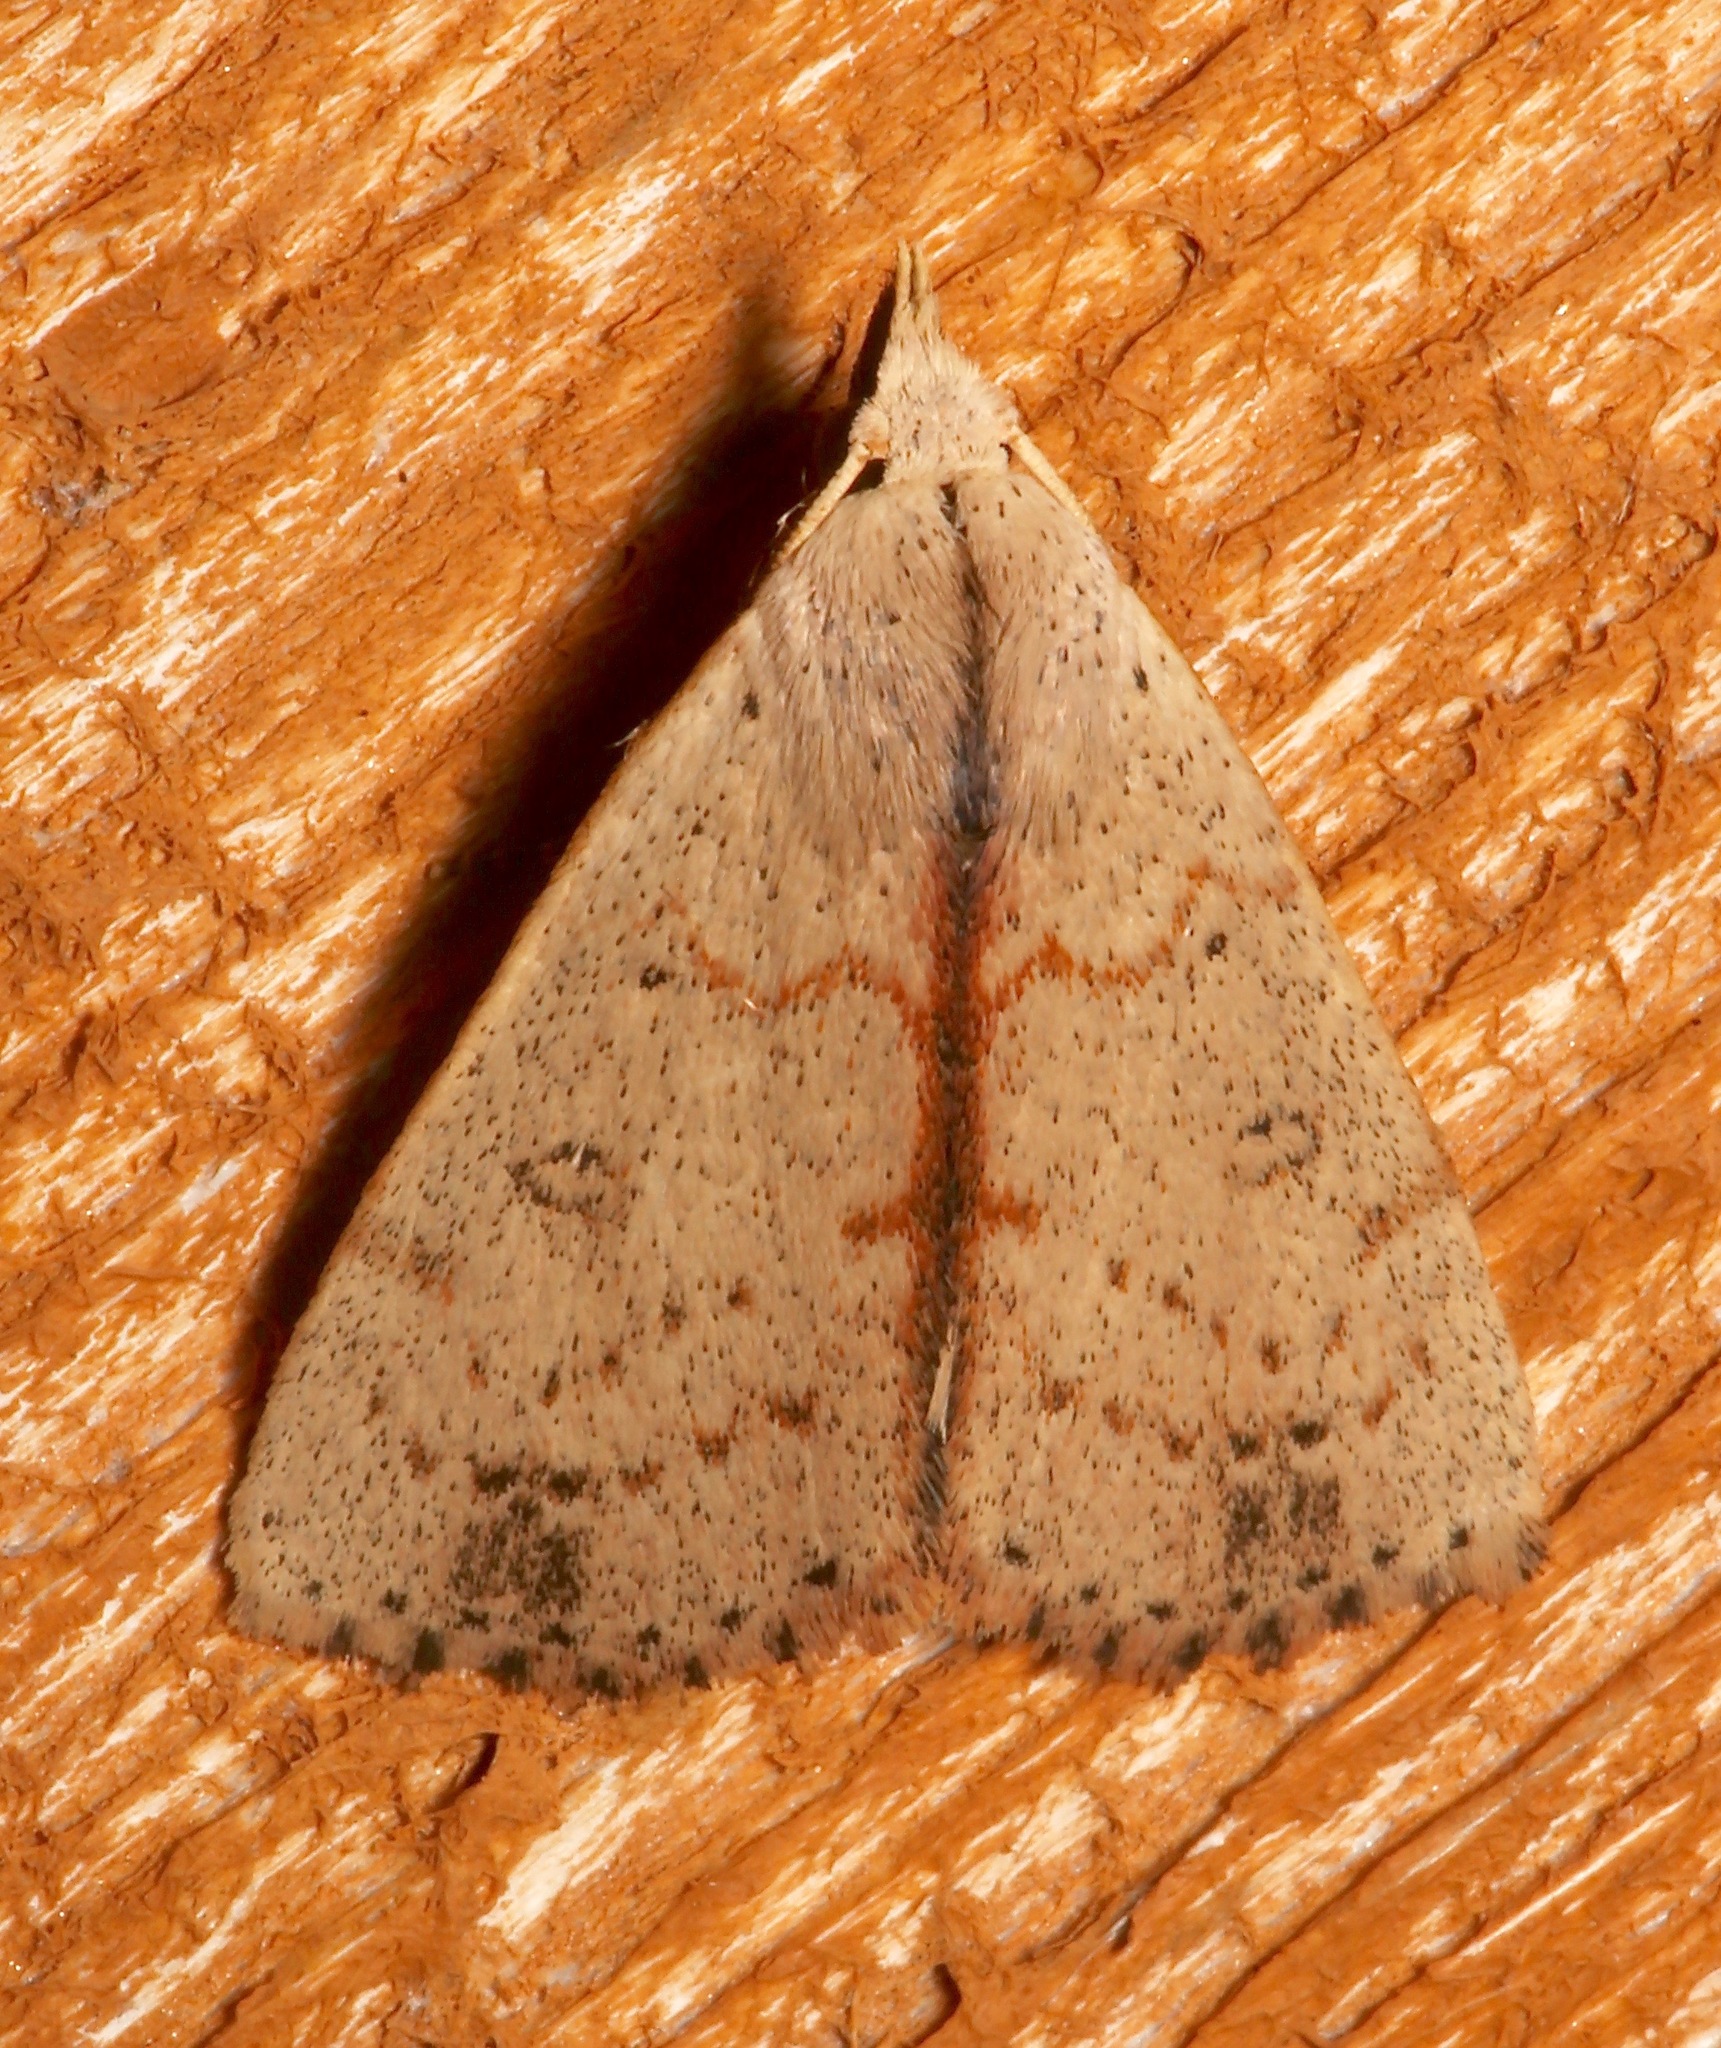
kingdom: Animalia
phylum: Arthropoda
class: Insecta
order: Lepidoptera
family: Erebidae
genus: Scolecocampa
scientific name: Scolecocampa liburna
